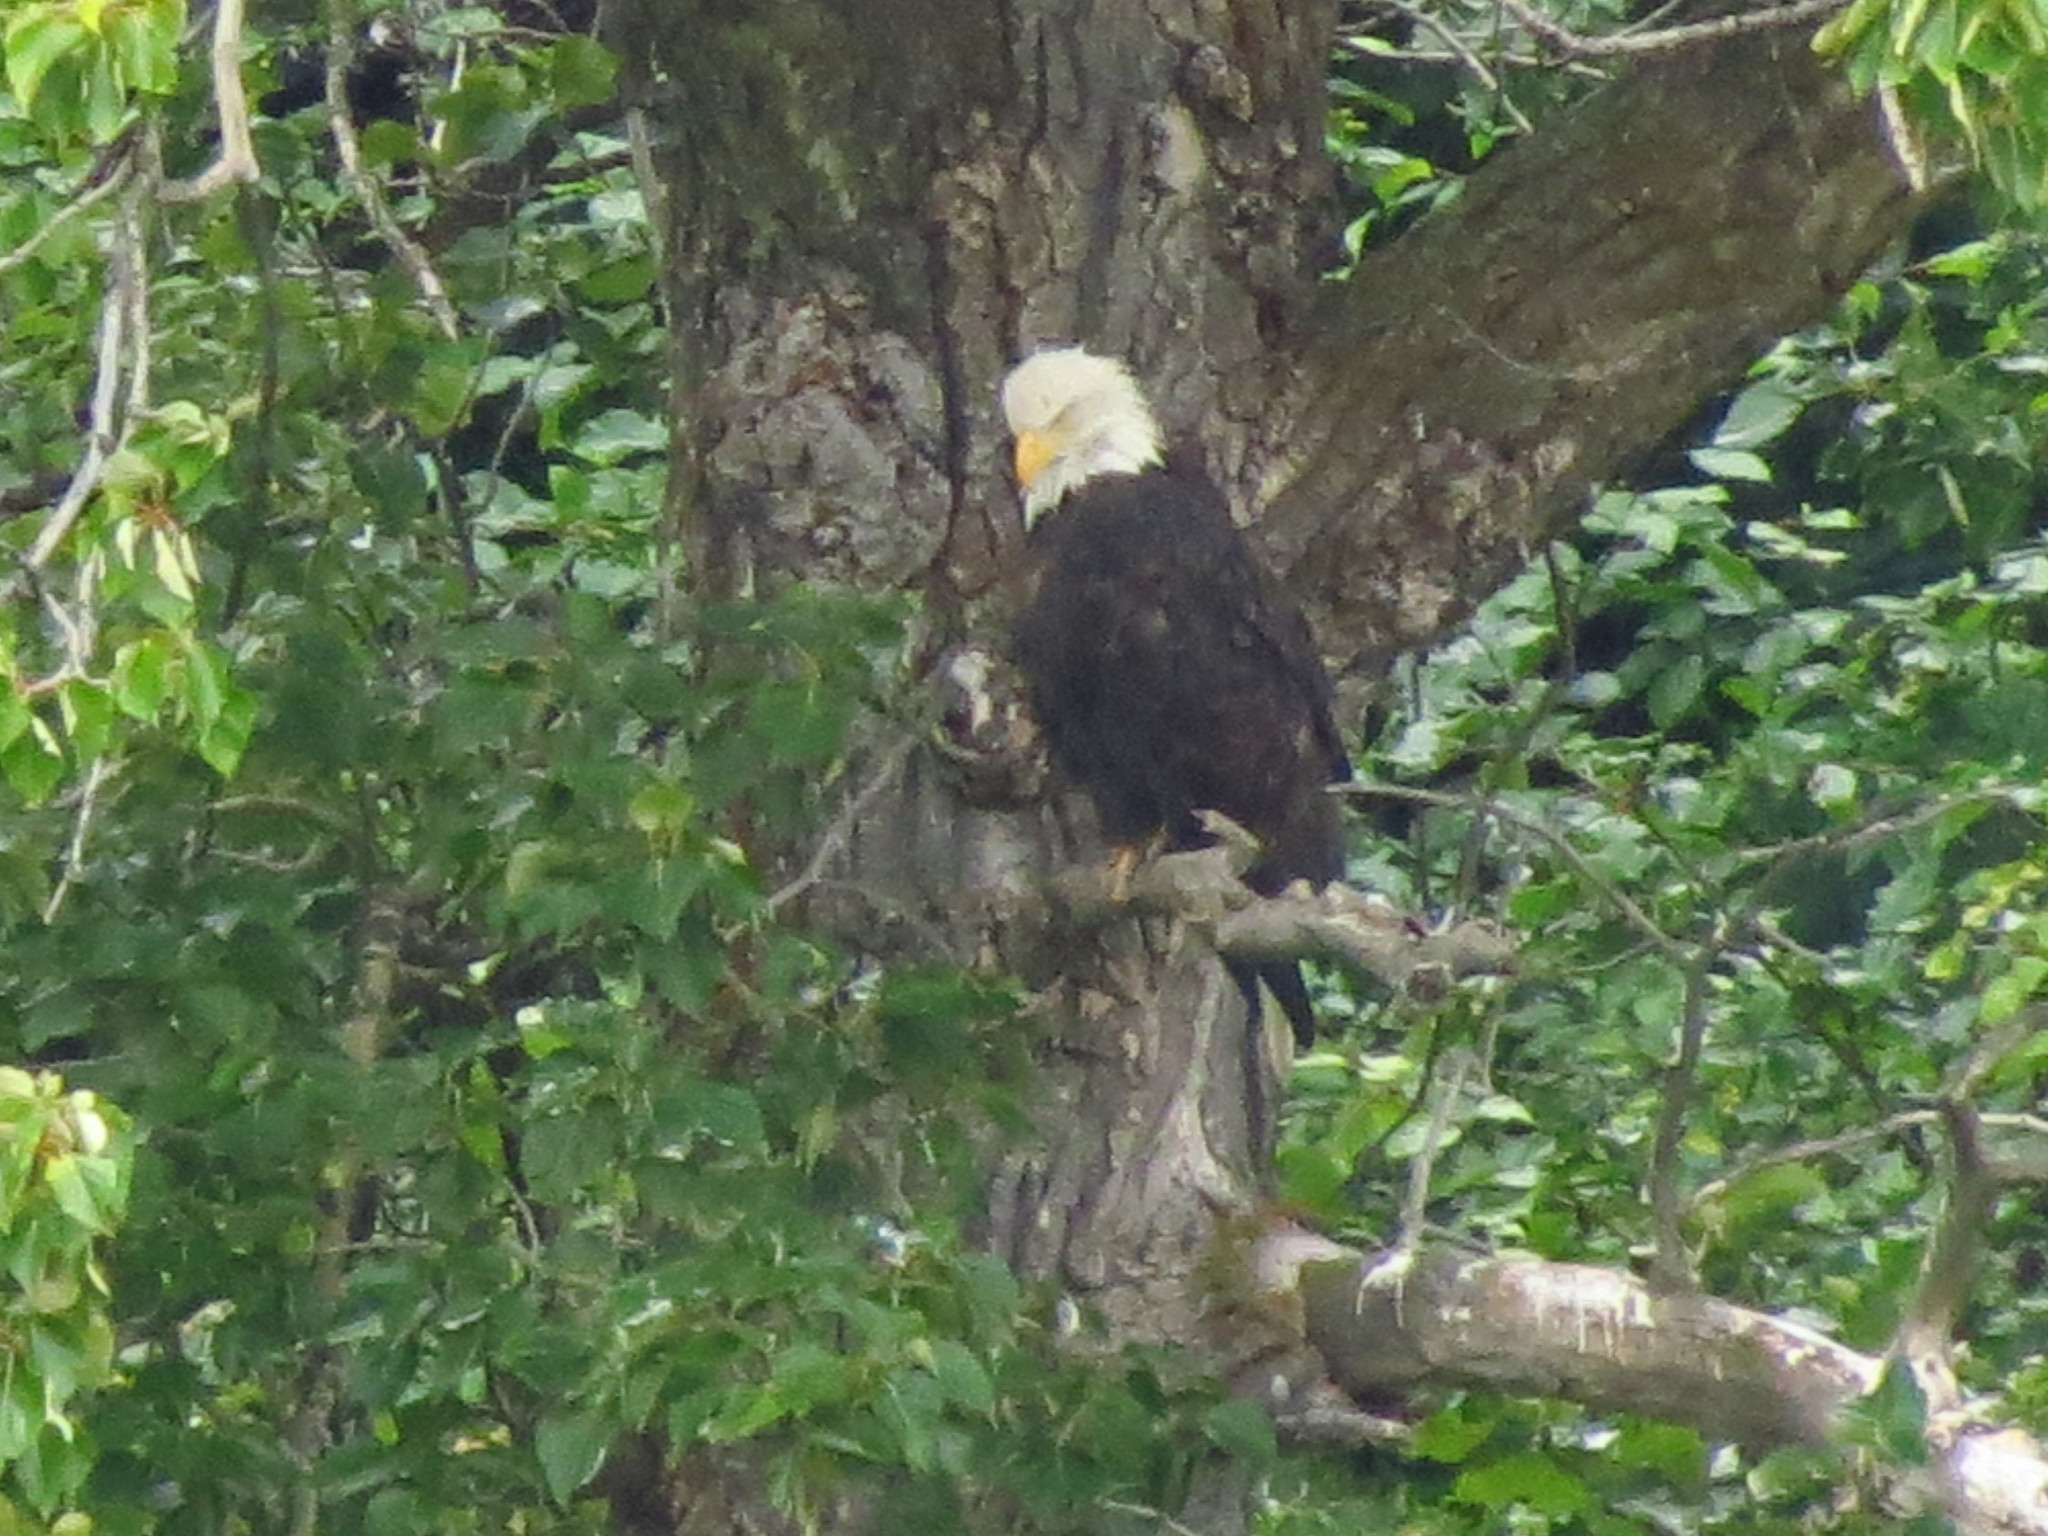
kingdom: Animalia
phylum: Chordata
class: Aves
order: Accipitriformes
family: Accipitridae
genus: Haliaeetus
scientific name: Haliaeetus leucocephalus
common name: Bald eagle
